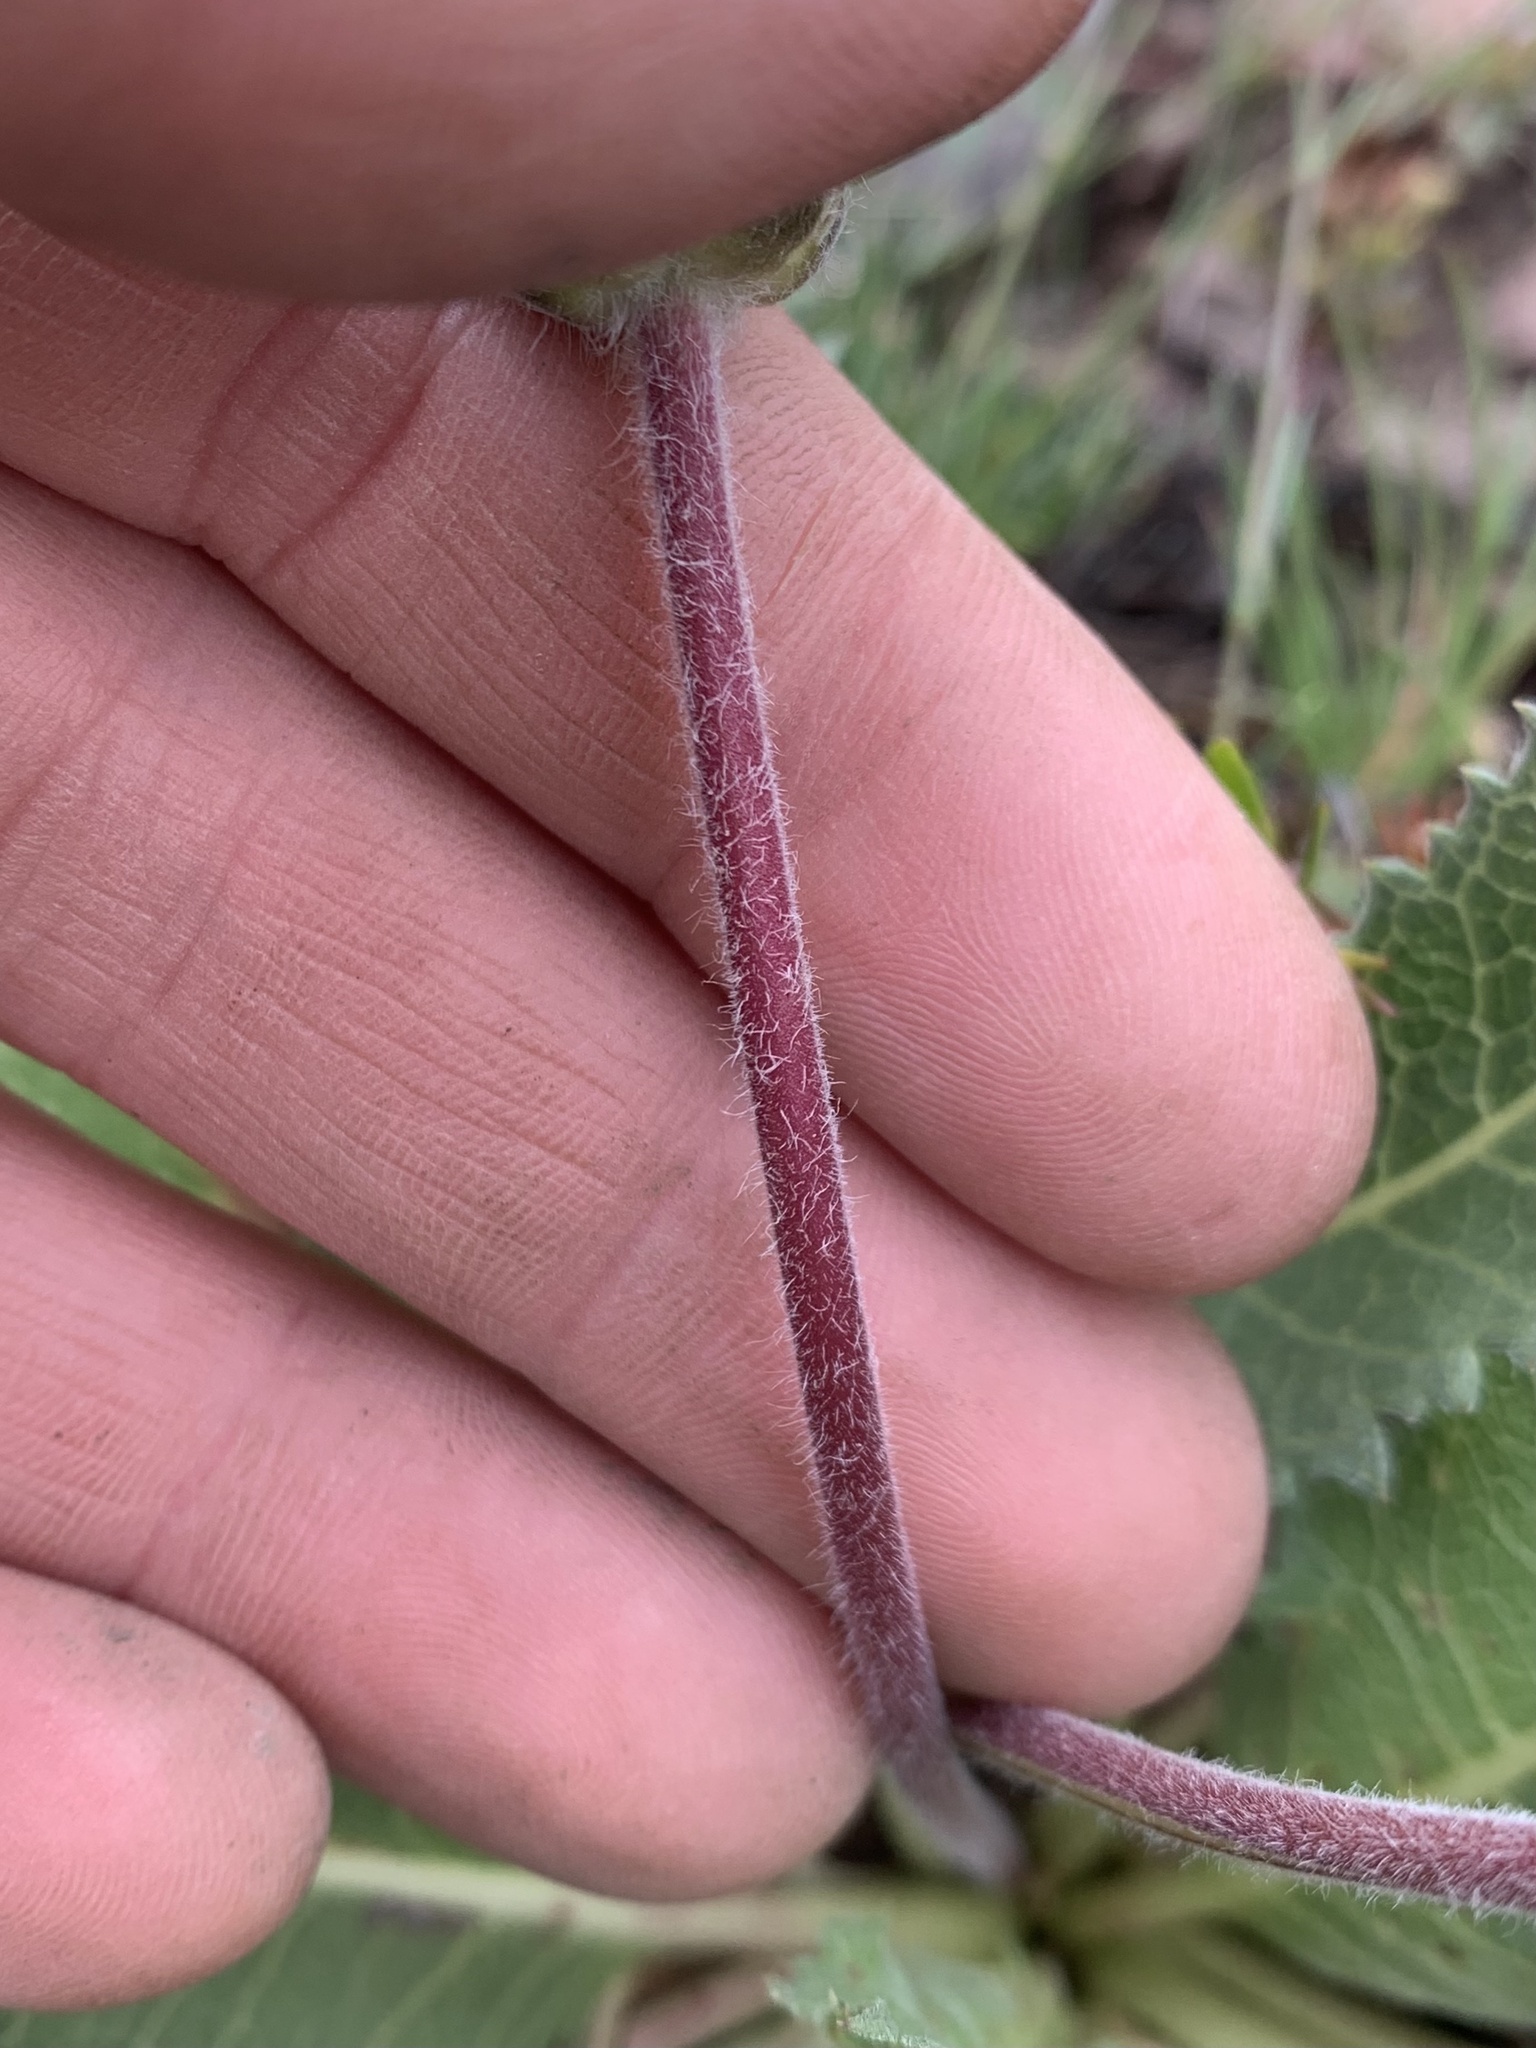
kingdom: Plantae
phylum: Tracheophyta
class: Magnoliopsida
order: Asterales
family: Asteraceae
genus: Balsamorhiza
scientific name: Balsamorhiza serrata
